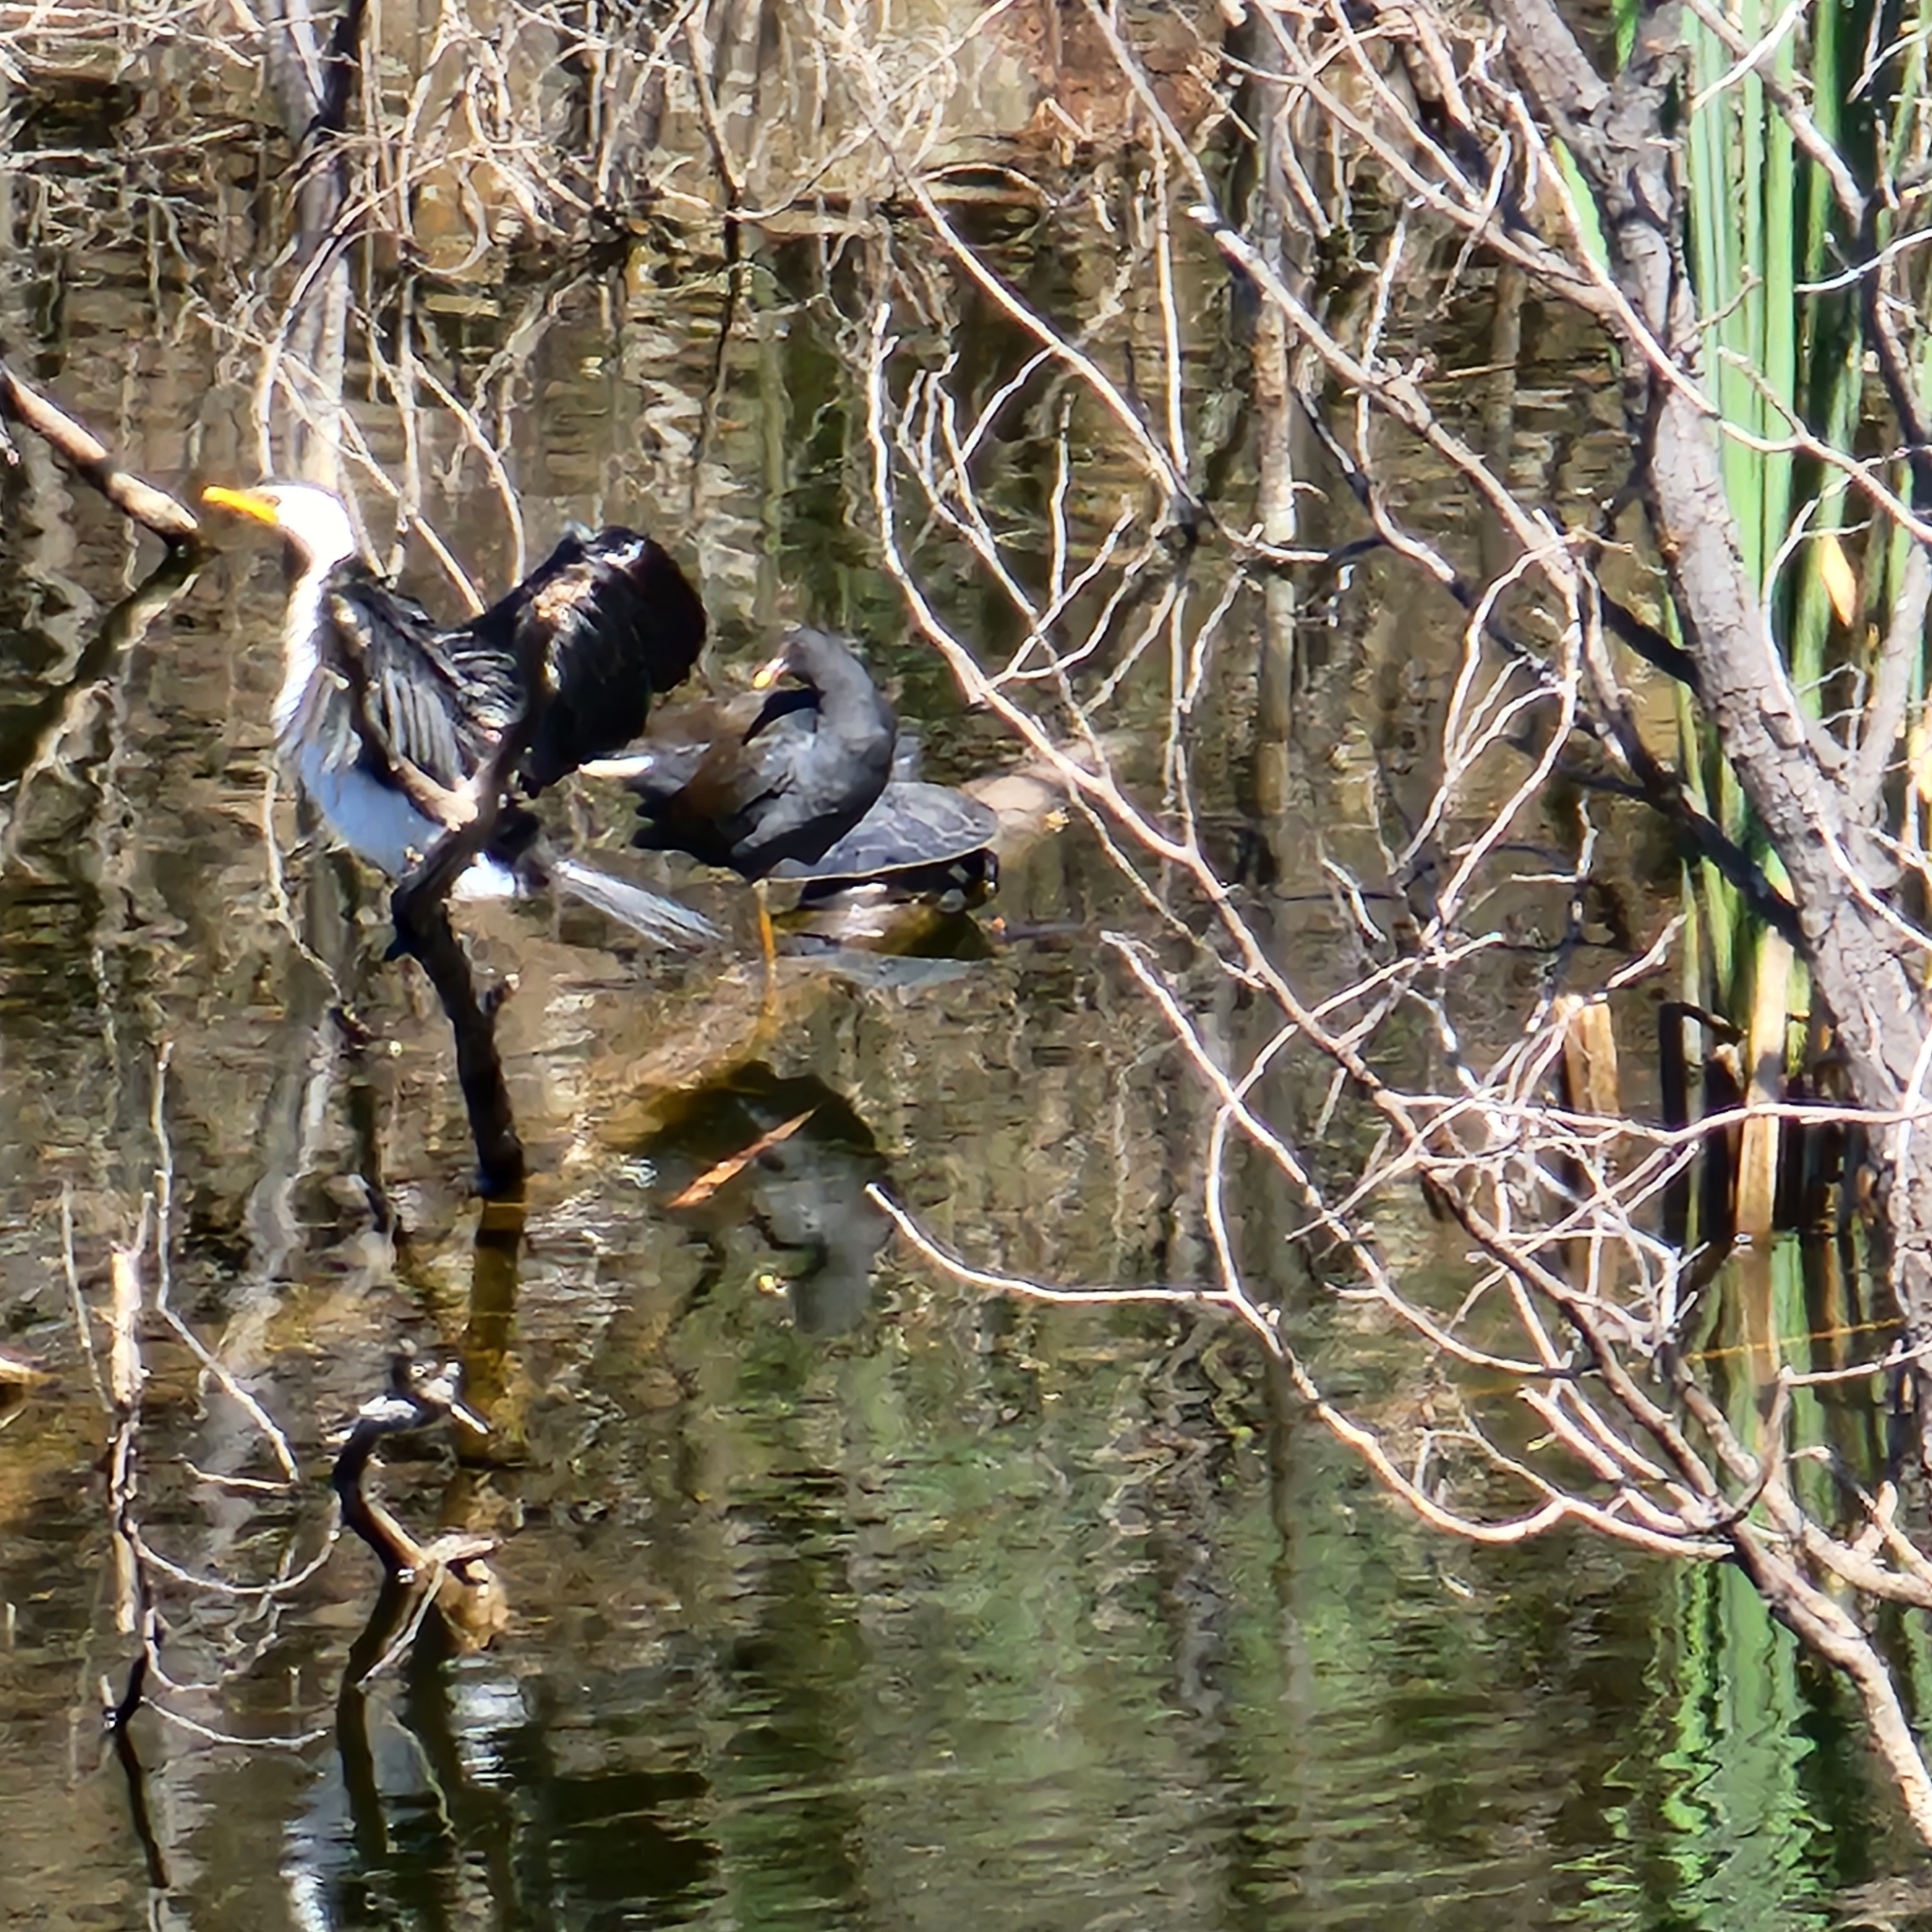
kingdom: Animalia
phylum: Chordata
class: Aves
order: Suliformes
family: Phalacrocoracidae
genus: Microcarbo
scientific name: Microcarbo melanoleucos
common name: Little pied cormorant
